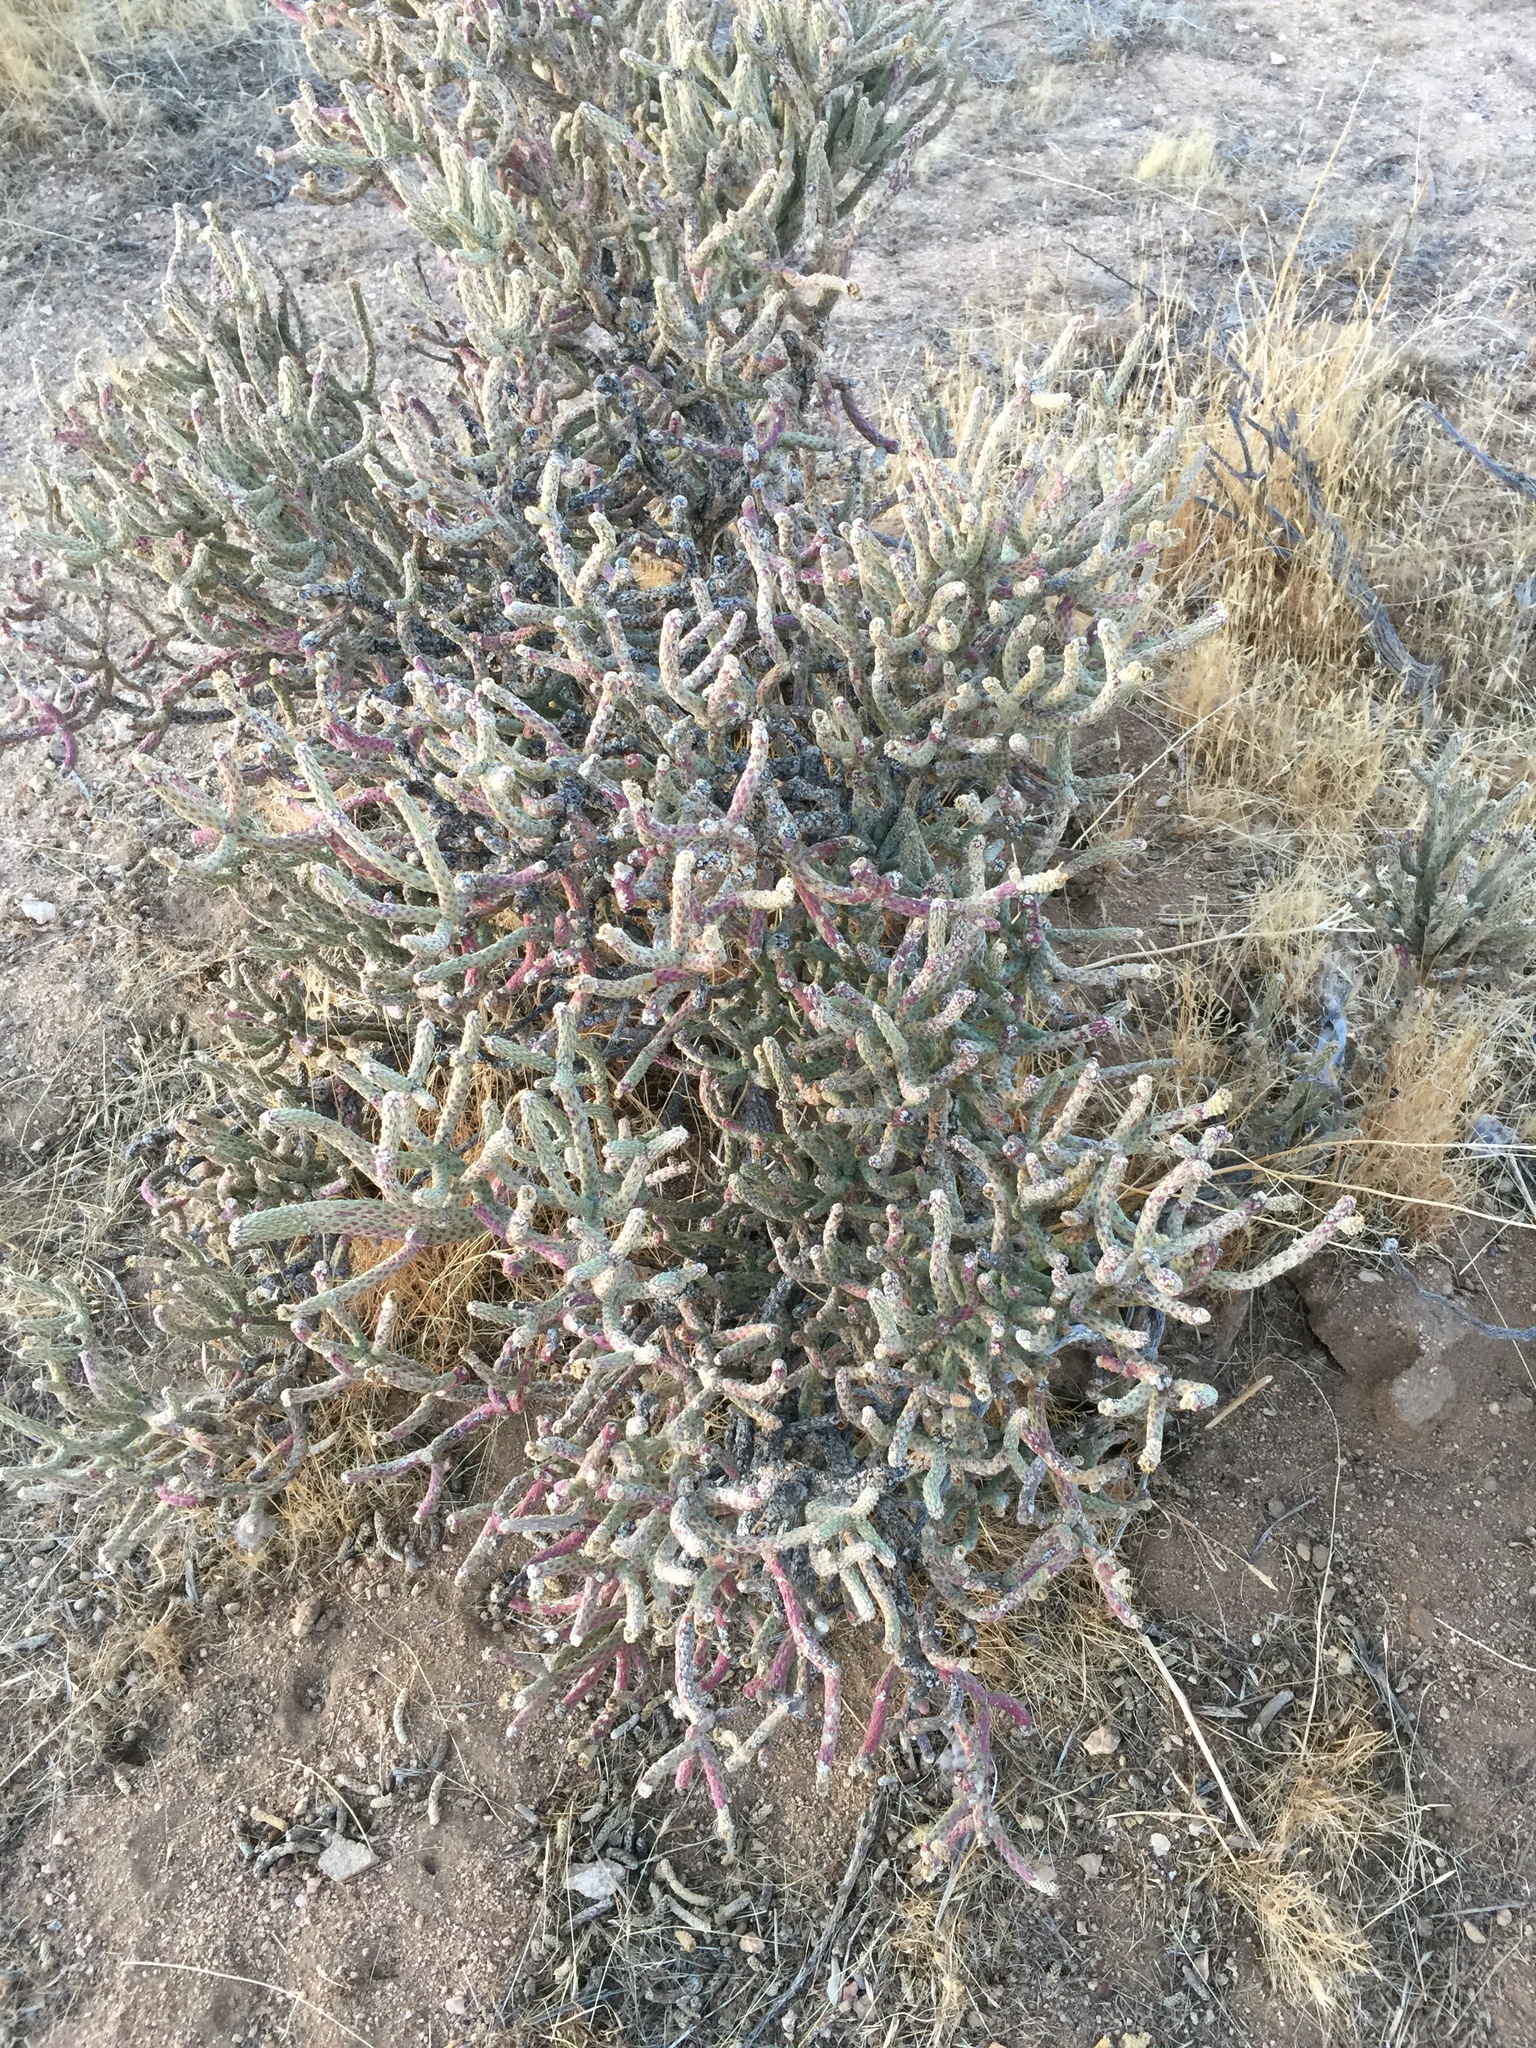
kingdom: Plantae
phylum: Tracheophyta
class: Magnoliopsida
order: Caryophyllales
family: Cactaceae
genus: Cylindropuntia
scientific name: Cylindropuntia ramosissima
